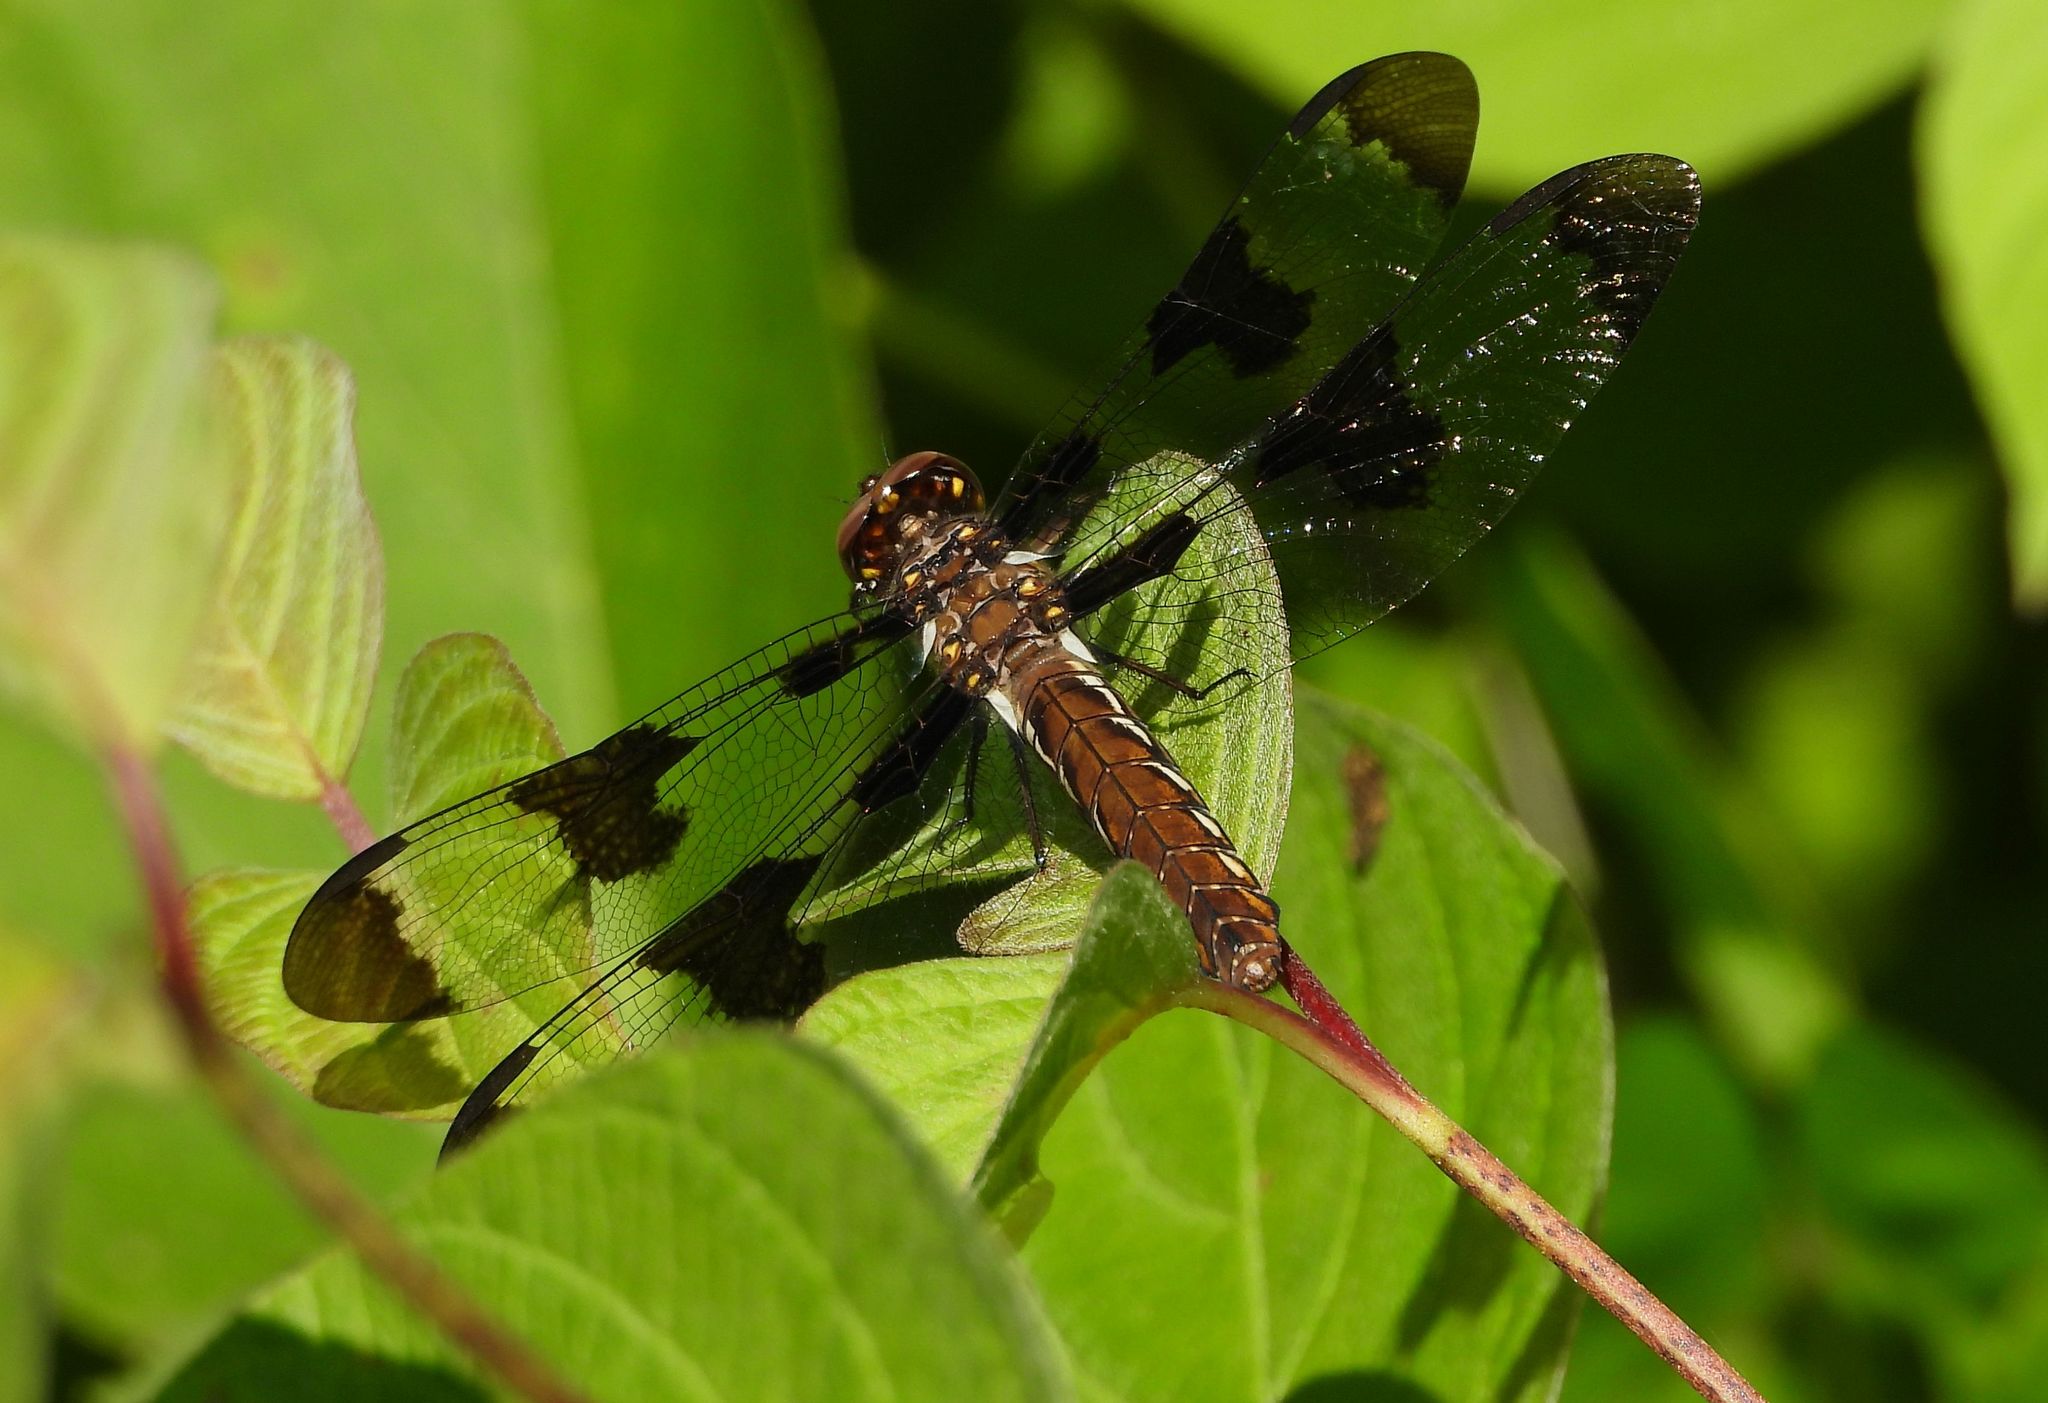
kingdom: Animalia
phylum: Arthropoda
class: Insecta
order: Odonata
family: Libellulidae
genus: Plathemis
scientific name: Plathemis lydia
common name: Common whitetail
